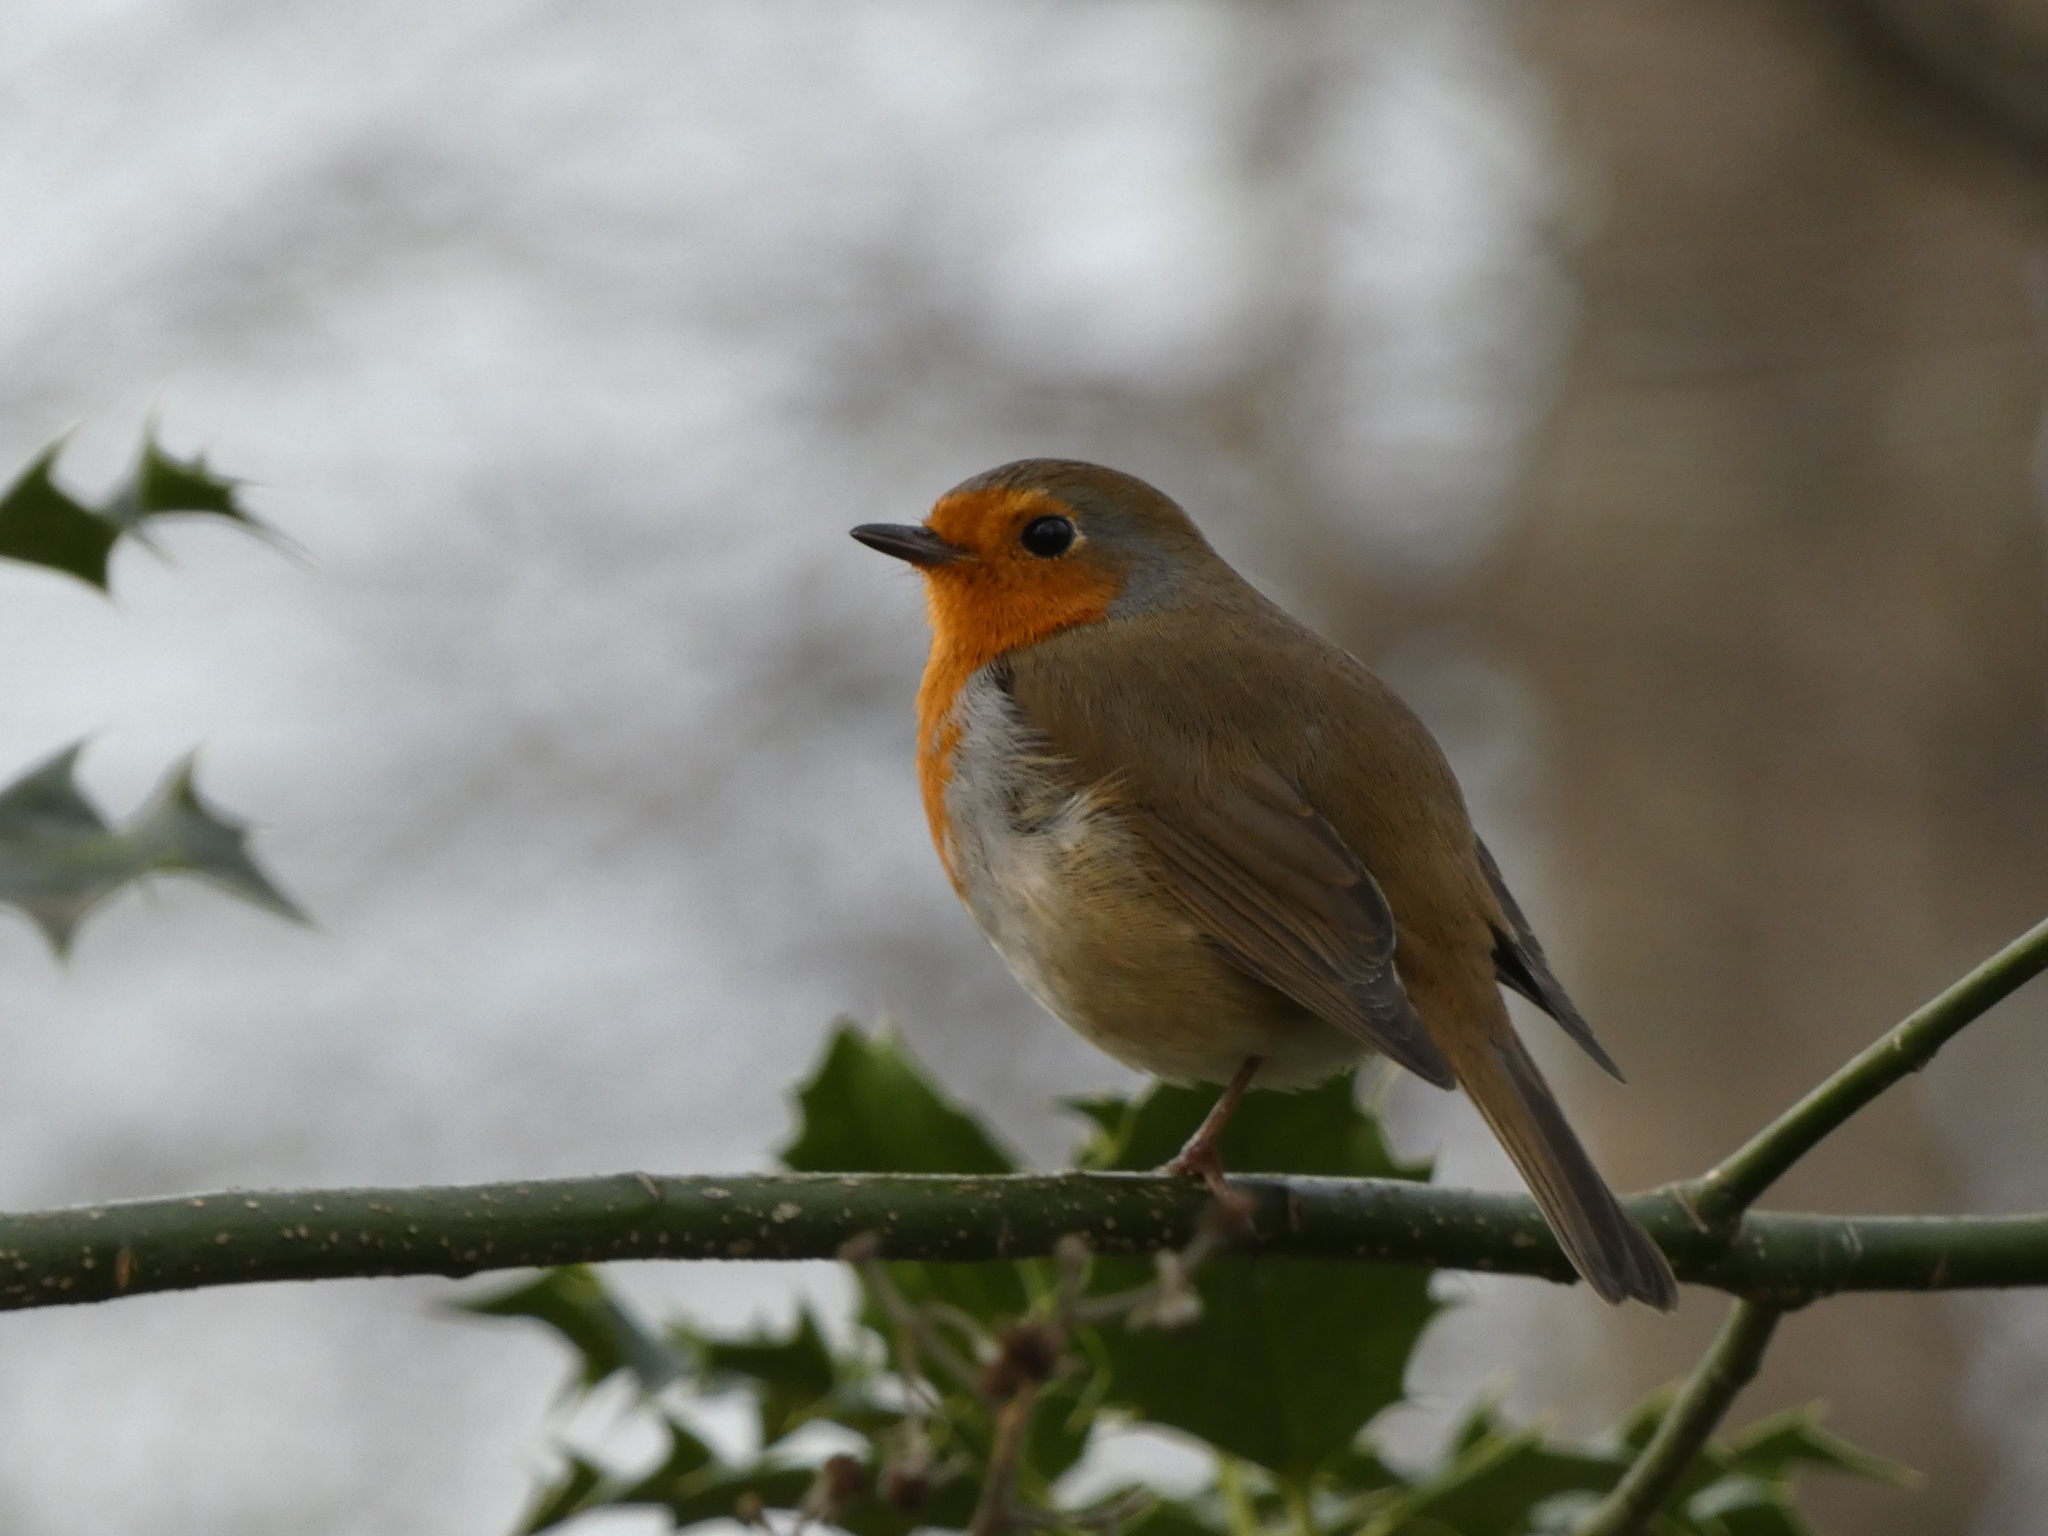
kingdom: Animalia
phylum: Chordata
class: Aves
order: Passeriformes
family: Muscicapidae
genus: Erithacus
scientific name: Erithacus rubecula
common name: European robin
